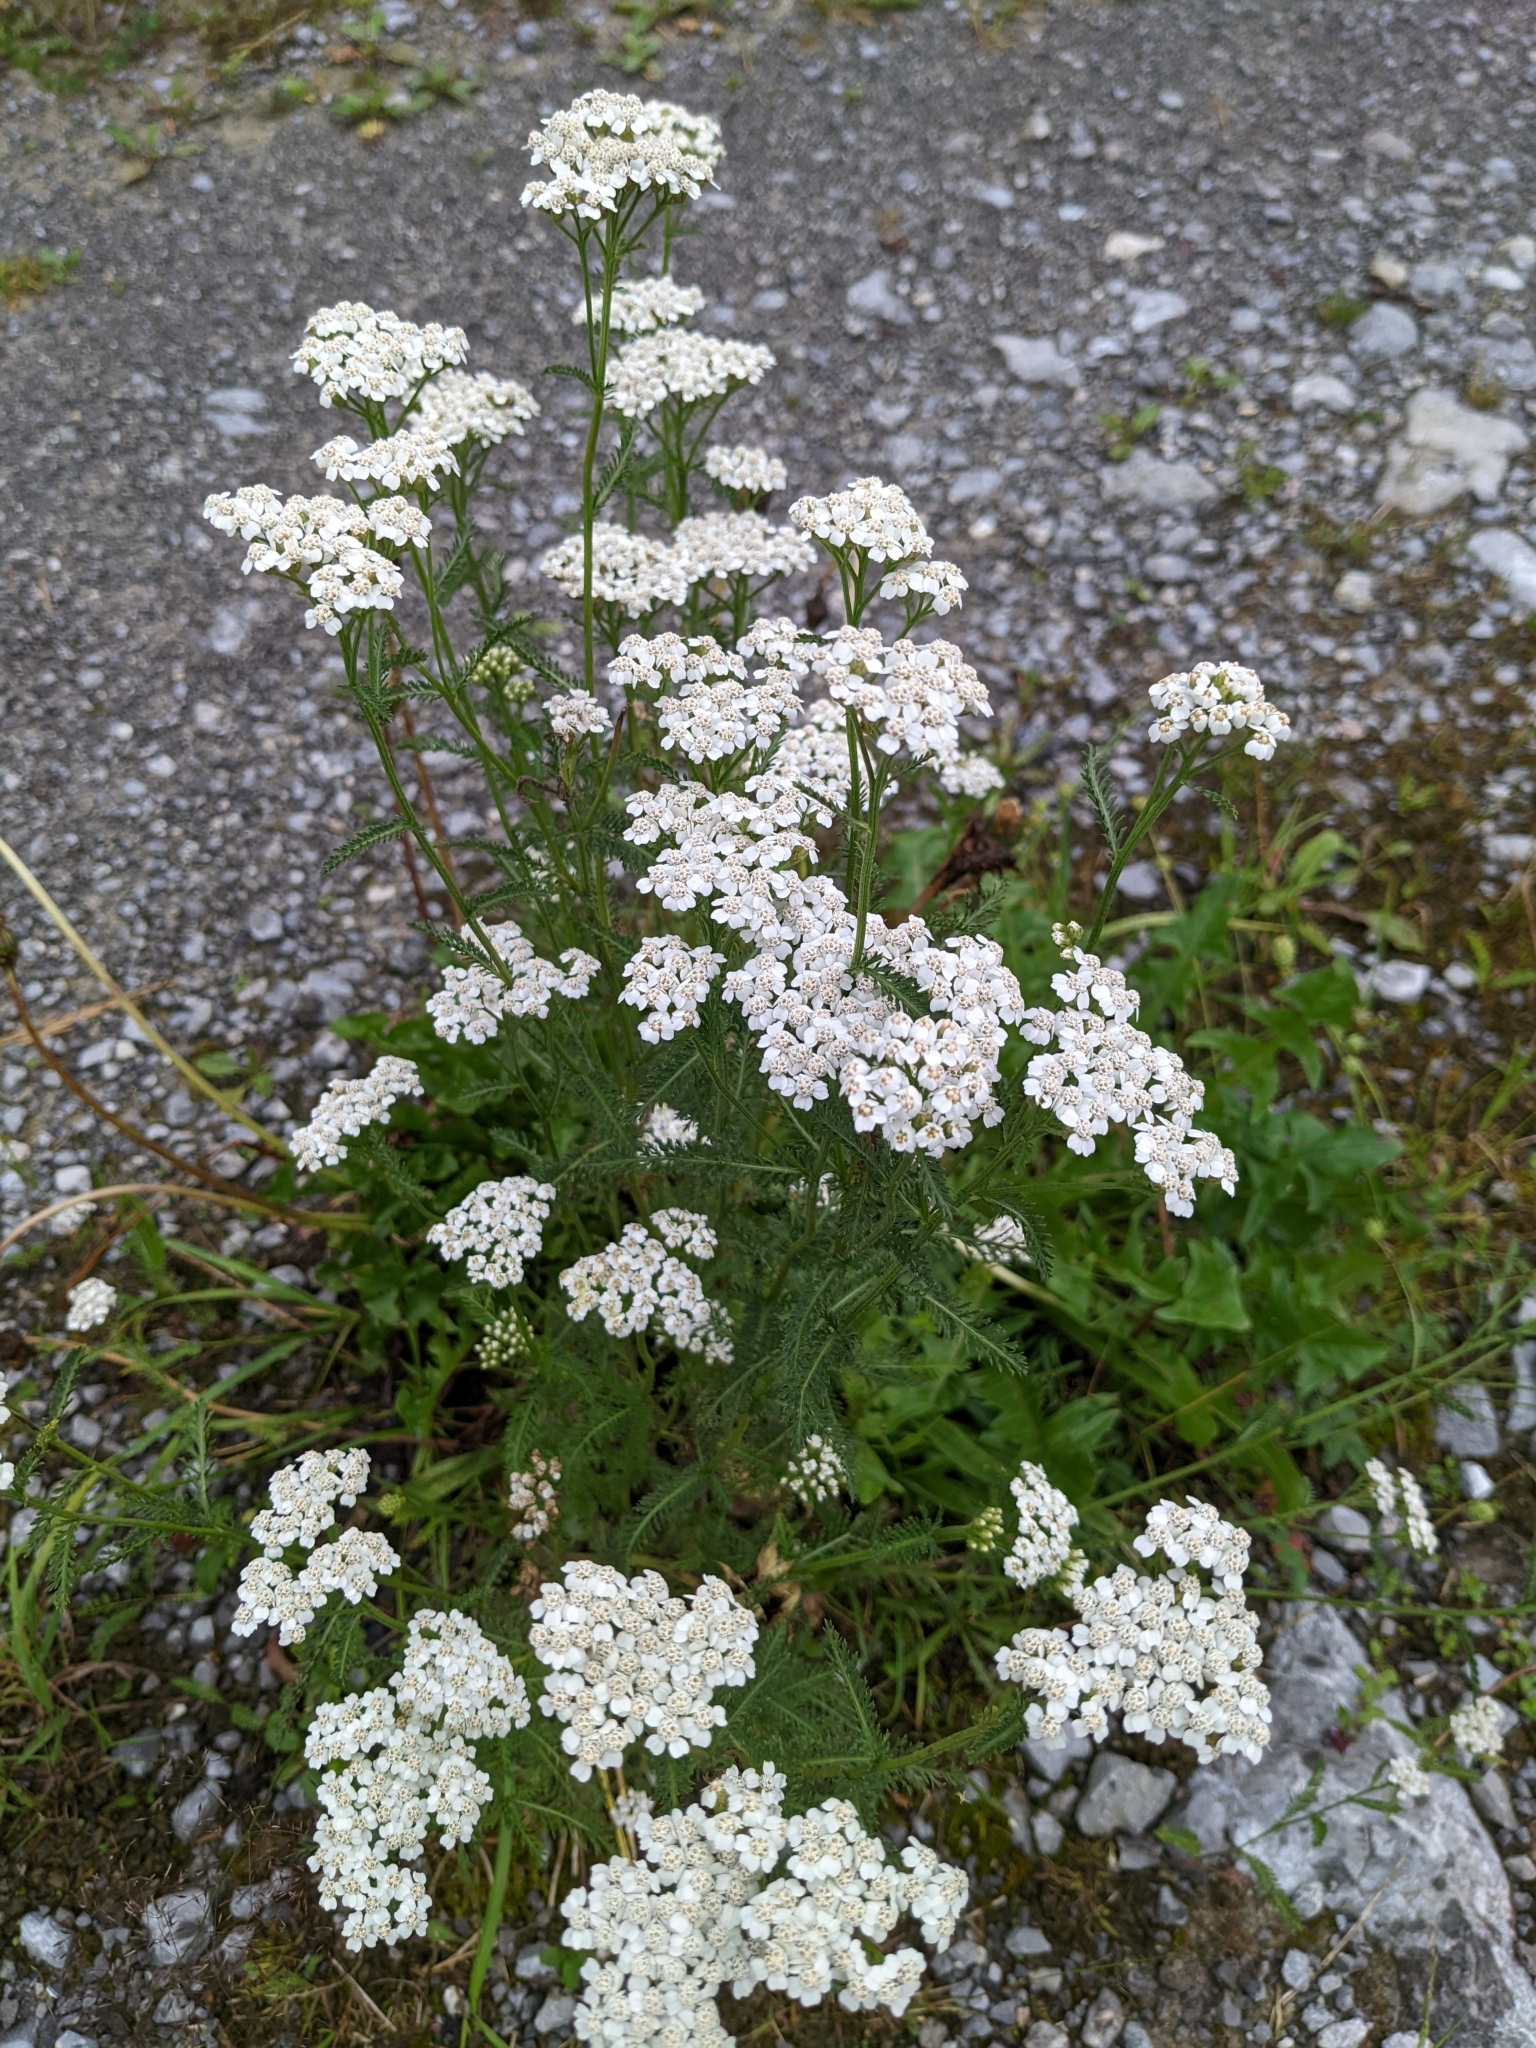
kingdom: Plantae
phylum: Tracheophyta
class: Magnoliopsida
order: Asterales
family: Asteraceae
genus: Achillea
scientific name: Achillea millefolium
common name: Yarrow
